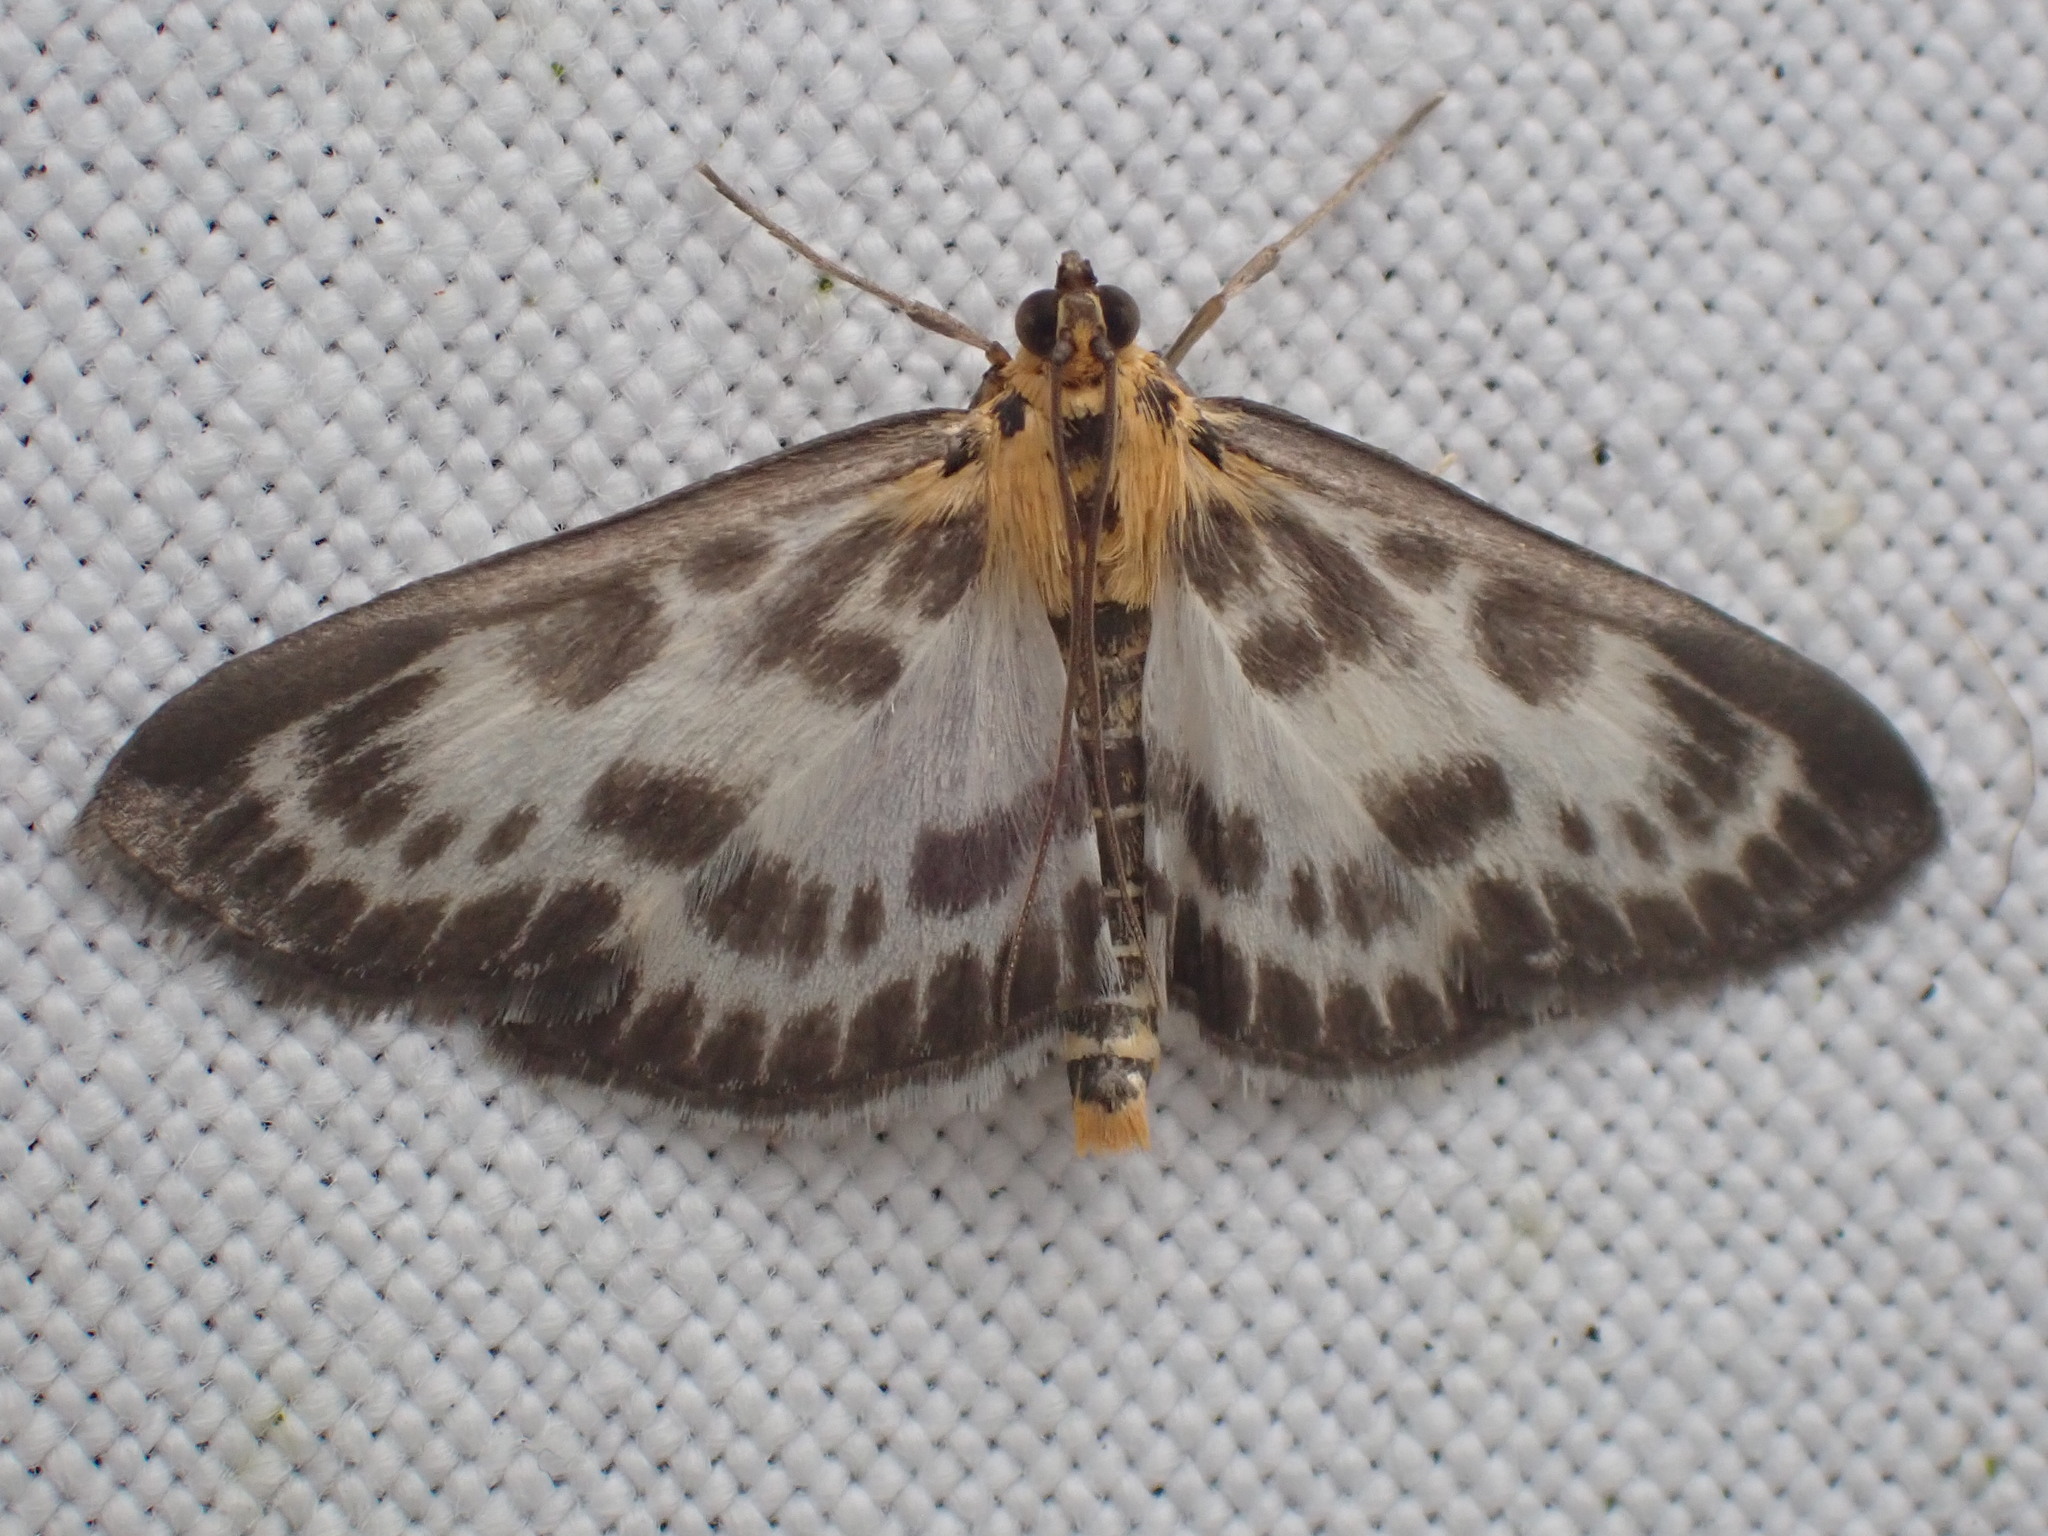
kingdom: Animalia
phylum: Arthropoda
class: Insecta
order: Lepidoptera
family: Crambidae
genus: Anania
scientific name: Anania hortulata
